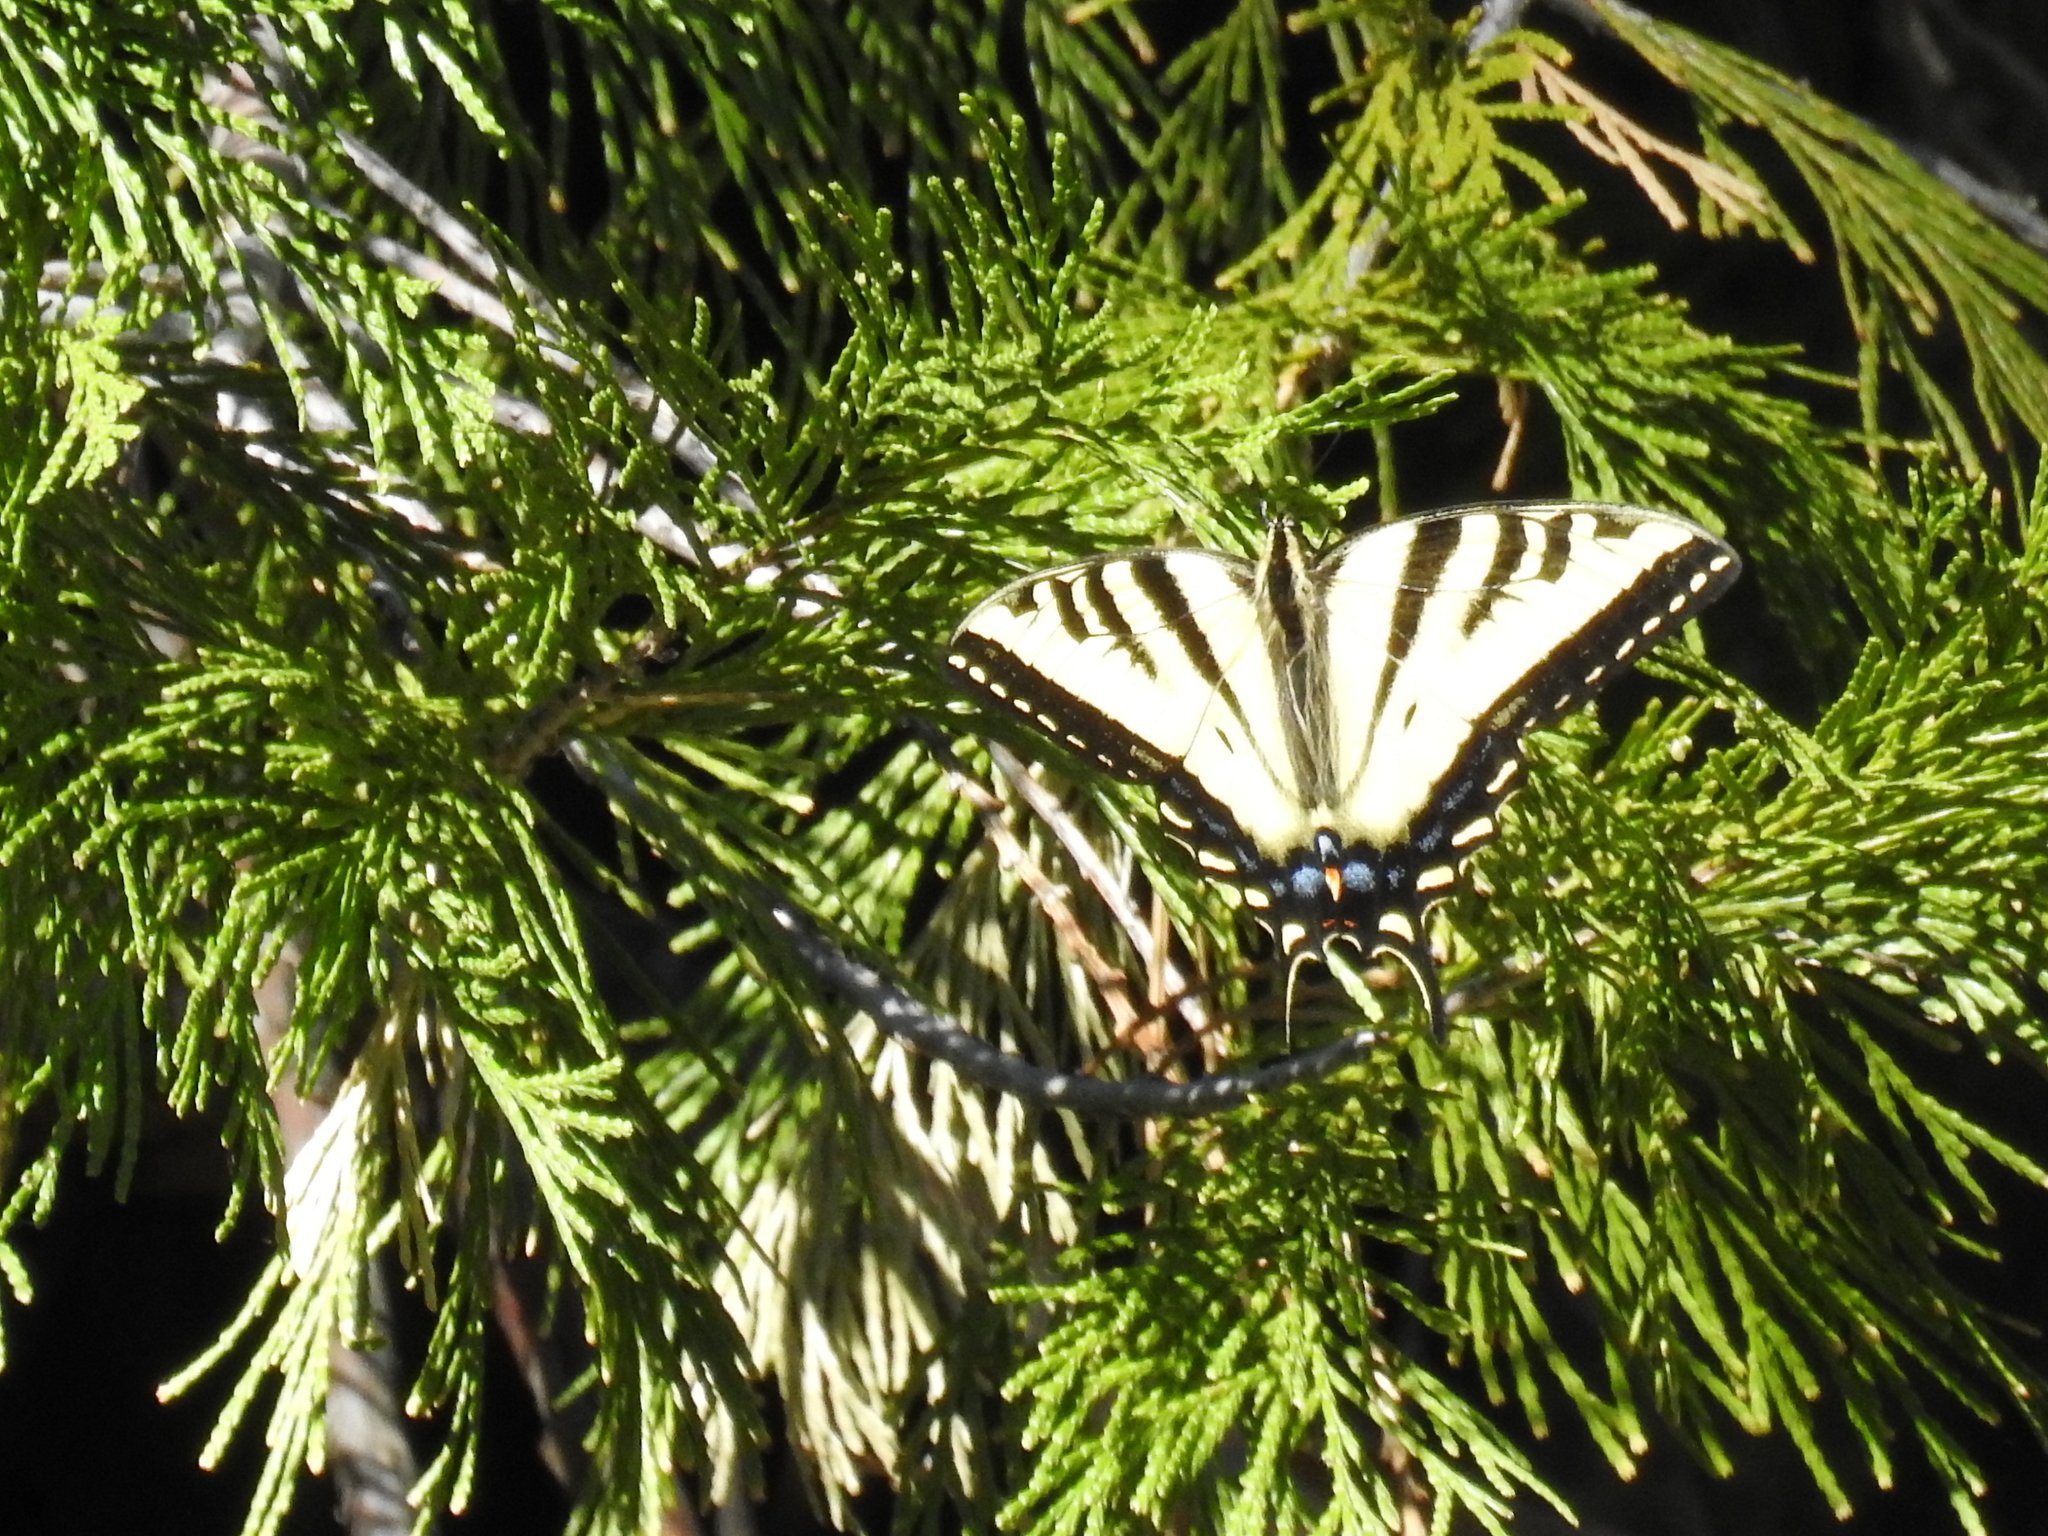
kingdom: Animalia
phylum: Arthropoda
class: Insecta
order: Lepidoptera
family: Papilionidae
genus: Papilio
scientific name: Papilio rutulus
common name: Western tiger swallowtail
